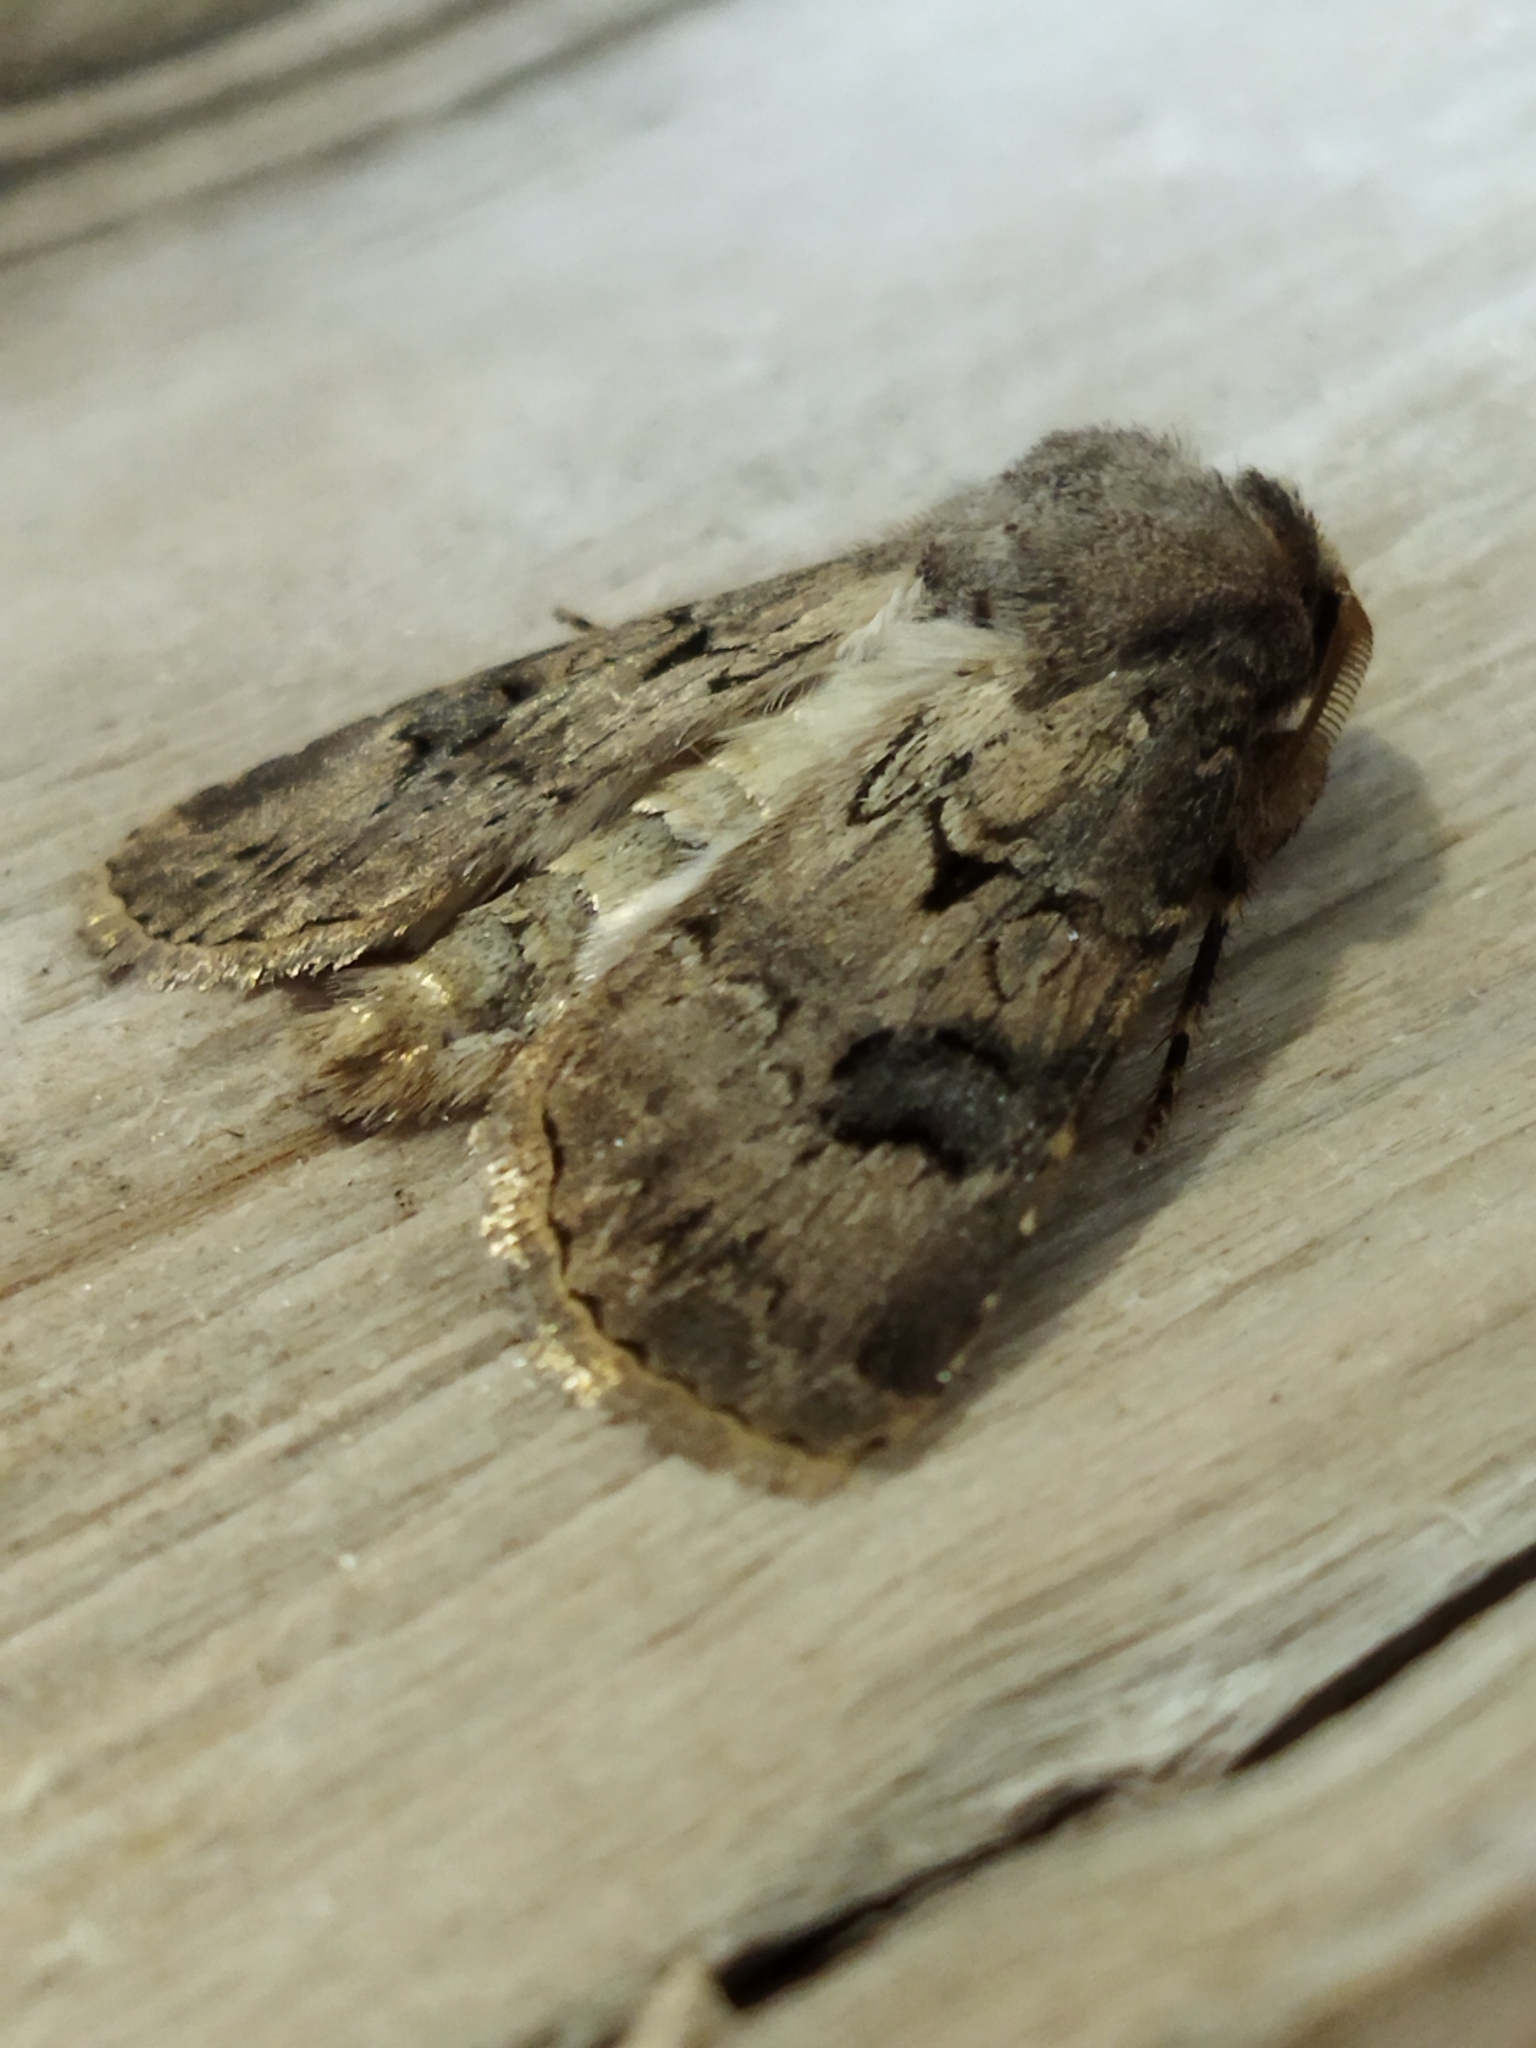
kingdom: Animalia
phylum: Arthropoda
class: Insecta
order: Lepidoptera
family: Noctuidae
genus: Agrotis
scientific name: Agrotis bigramma
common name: Great dart
